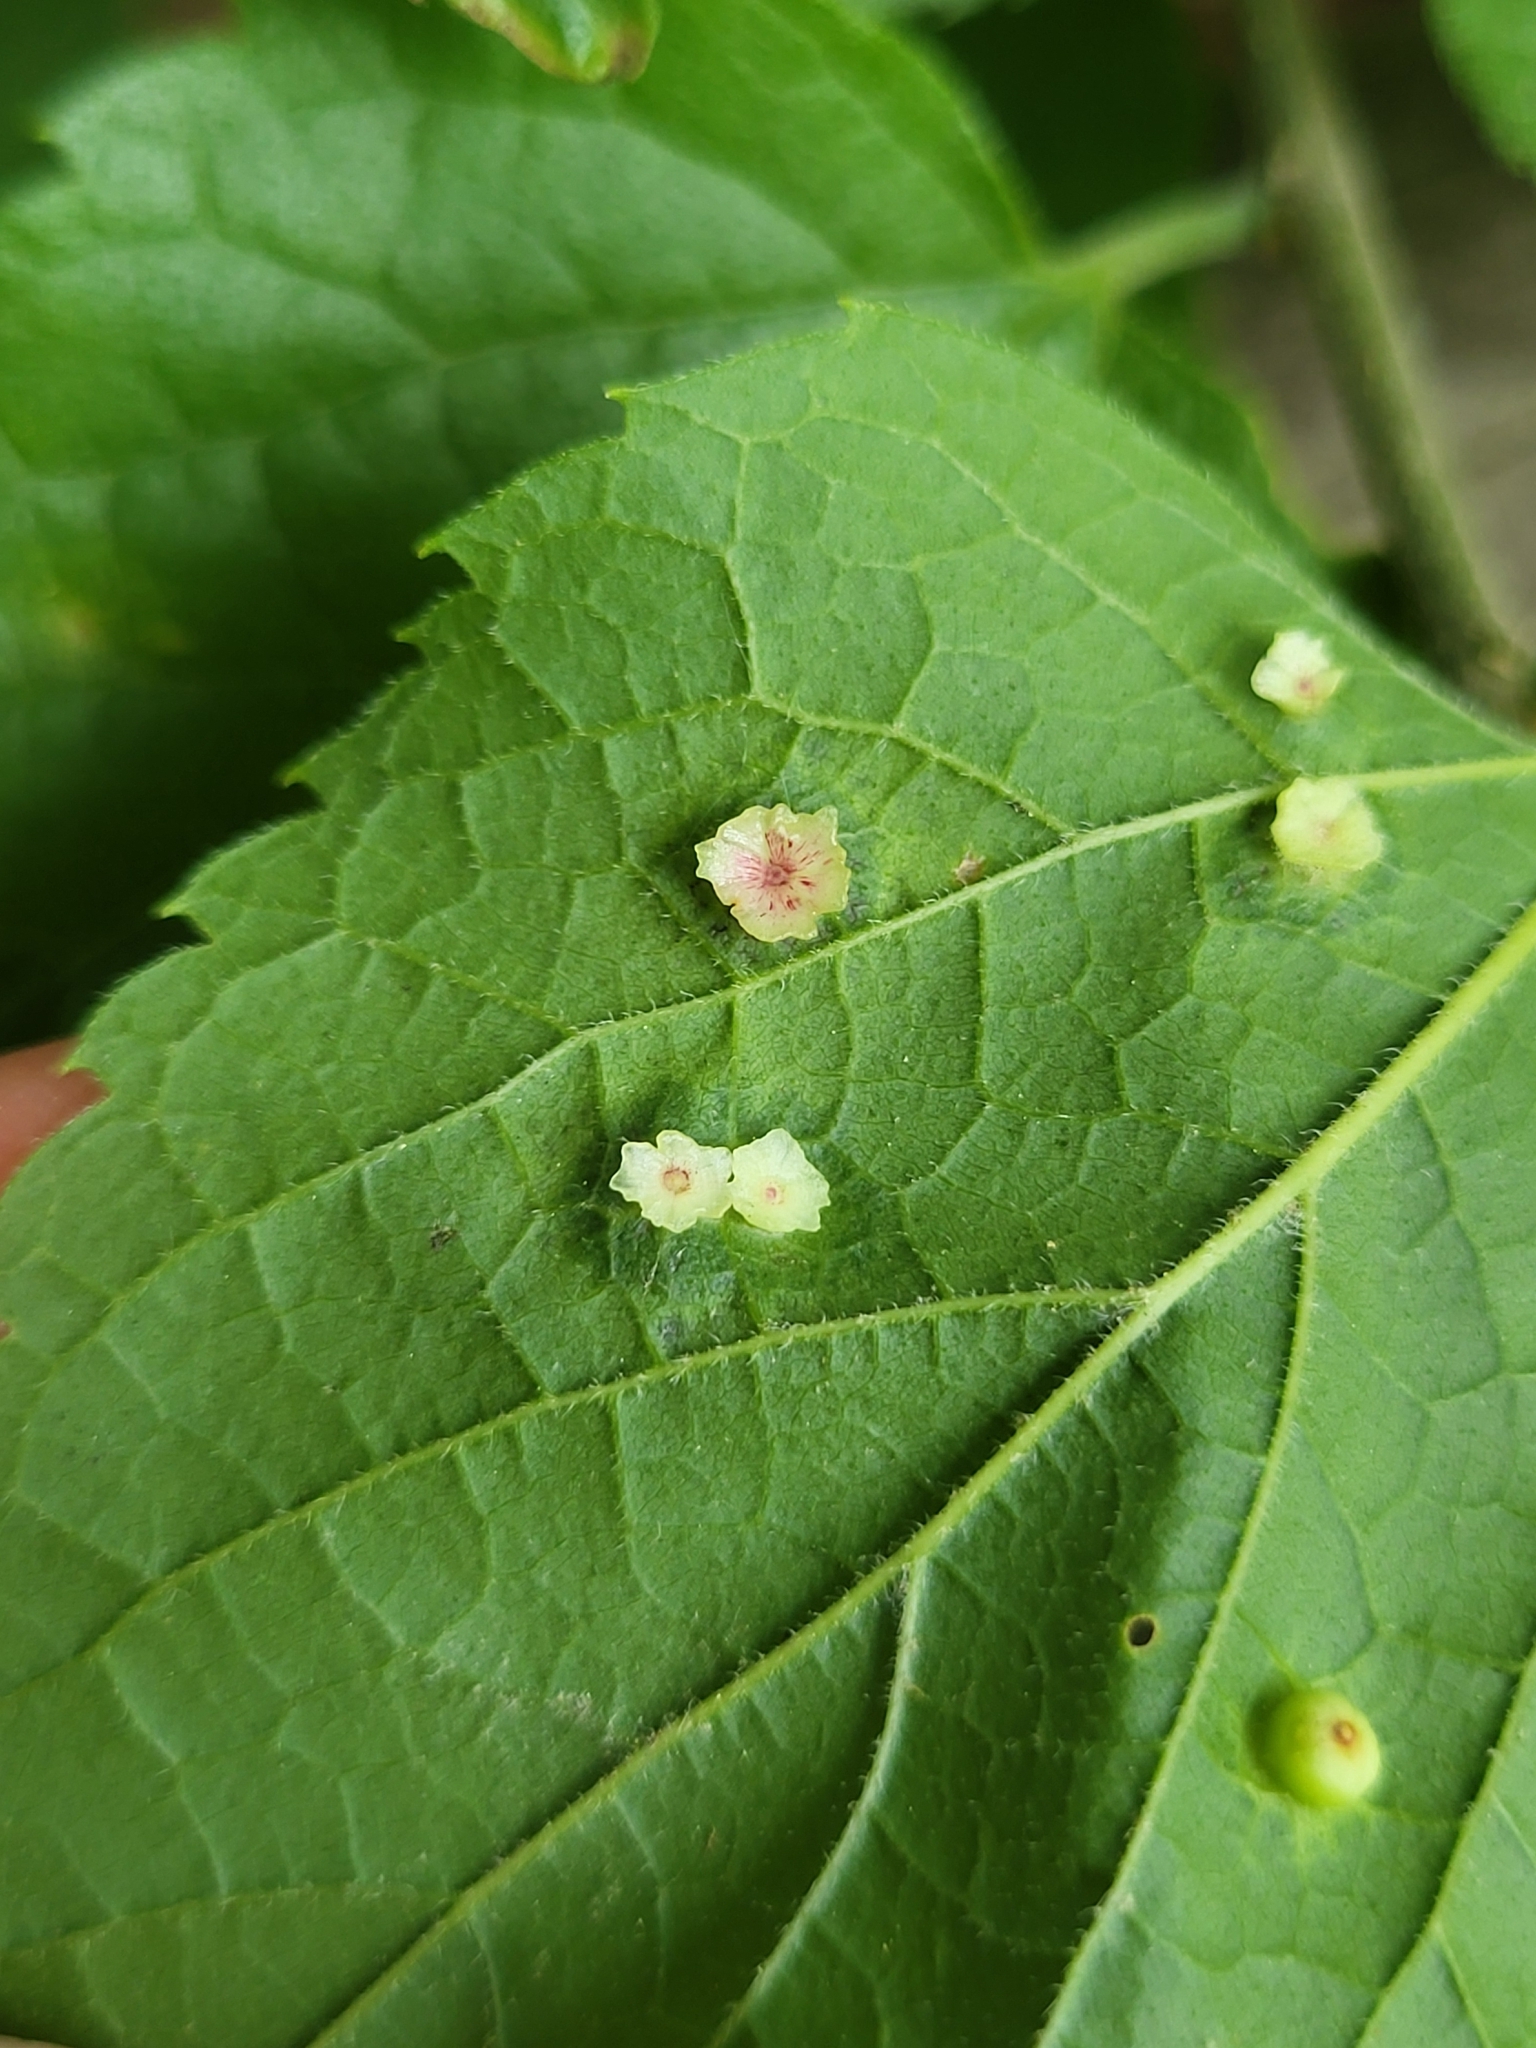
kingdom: Animalia
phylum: Arthropoda
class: Insecta
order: Hemiptera
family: Aphalaridae
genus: Pachypsylla
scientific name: Pachypsylla celtidisasterisca
